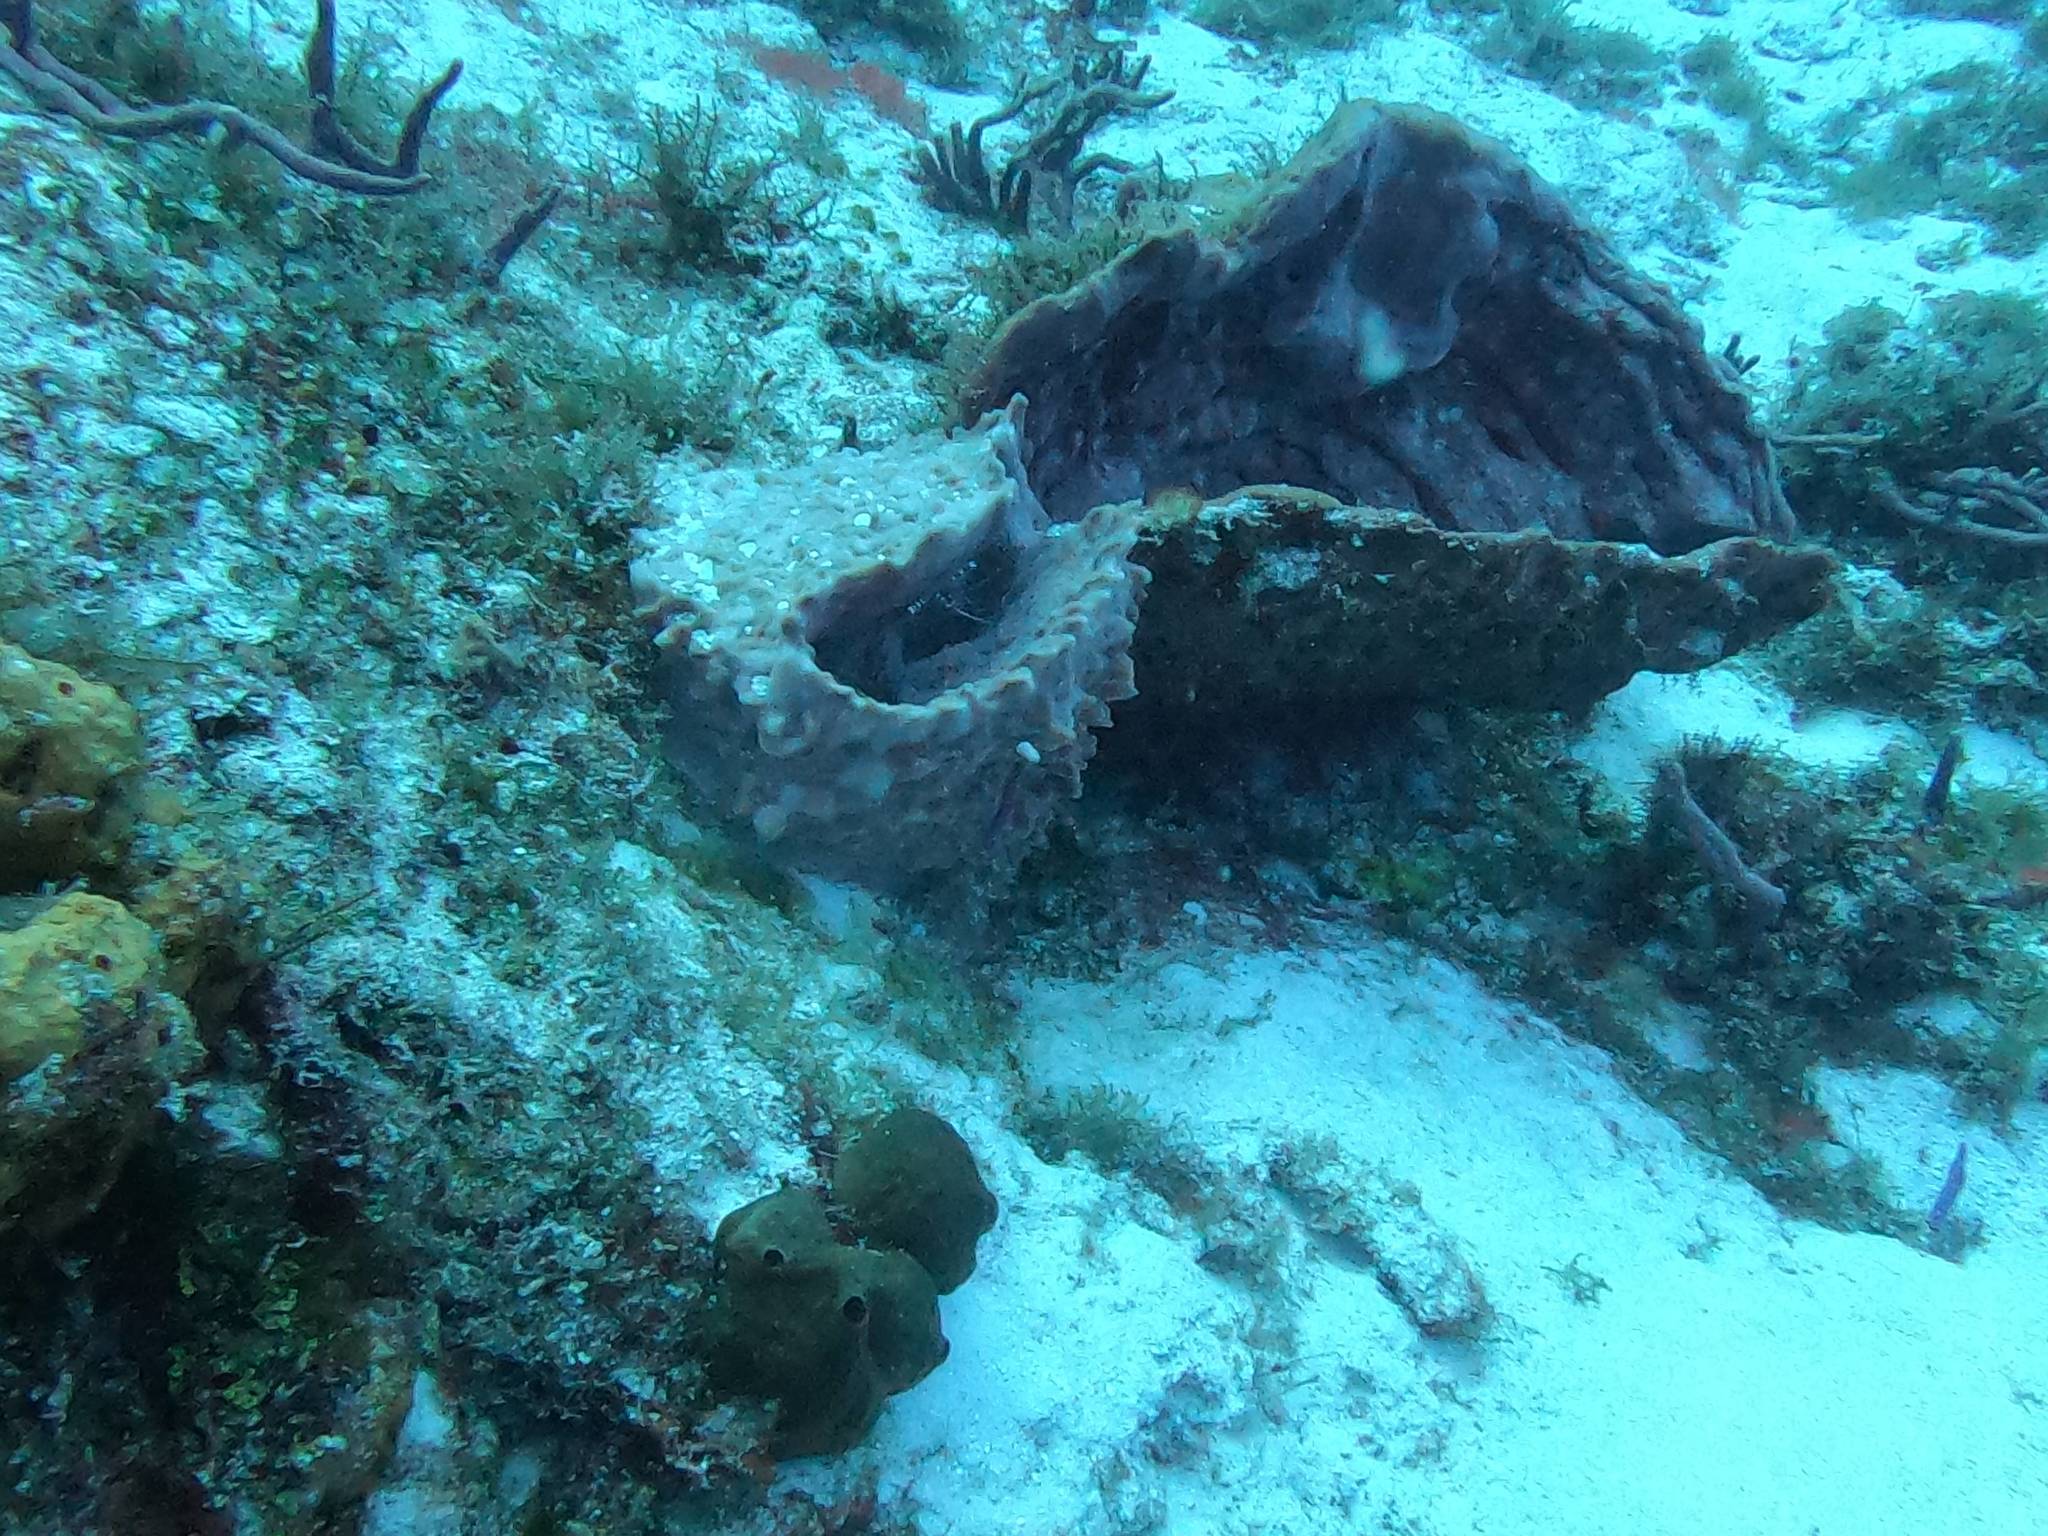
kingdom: Animalia
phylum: Porifera
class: Demospongiae
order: Haplosclerida
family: Petrosiidae
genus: Xestospongia
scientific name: Xestospongia muta
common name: Giant barrel sponge
